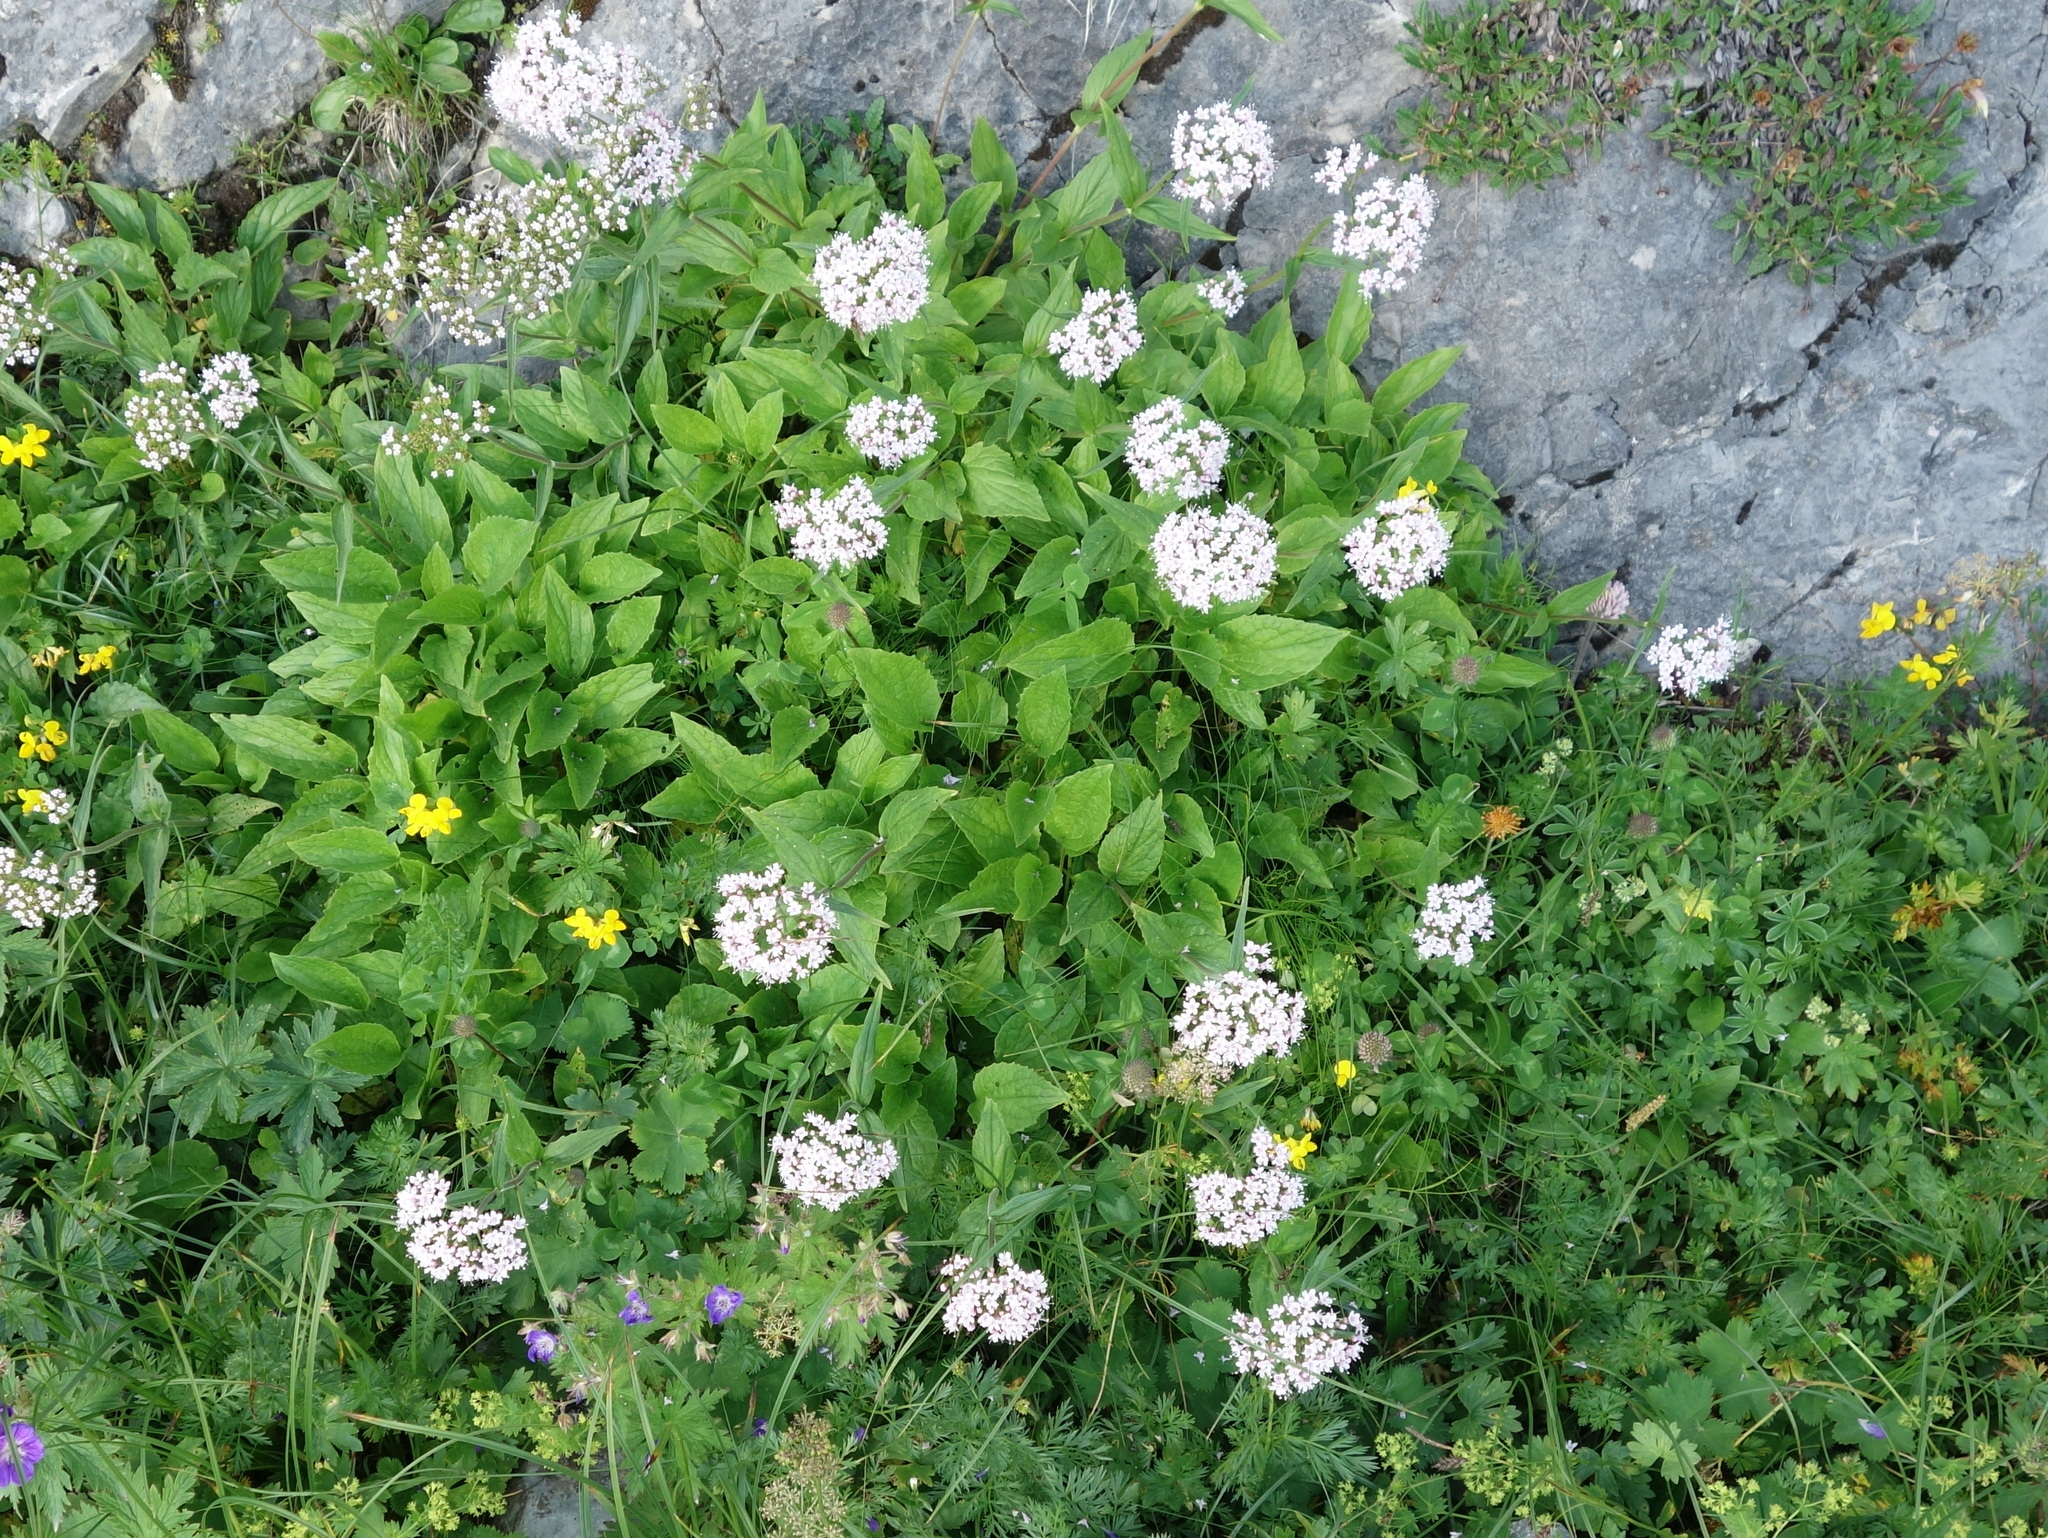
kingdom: Plantae
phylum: Tracheophyta
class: Magnoliopsida
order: Dipsacales
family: Caprifoliaceae
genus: Valeriana
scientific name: Valeriana montana
